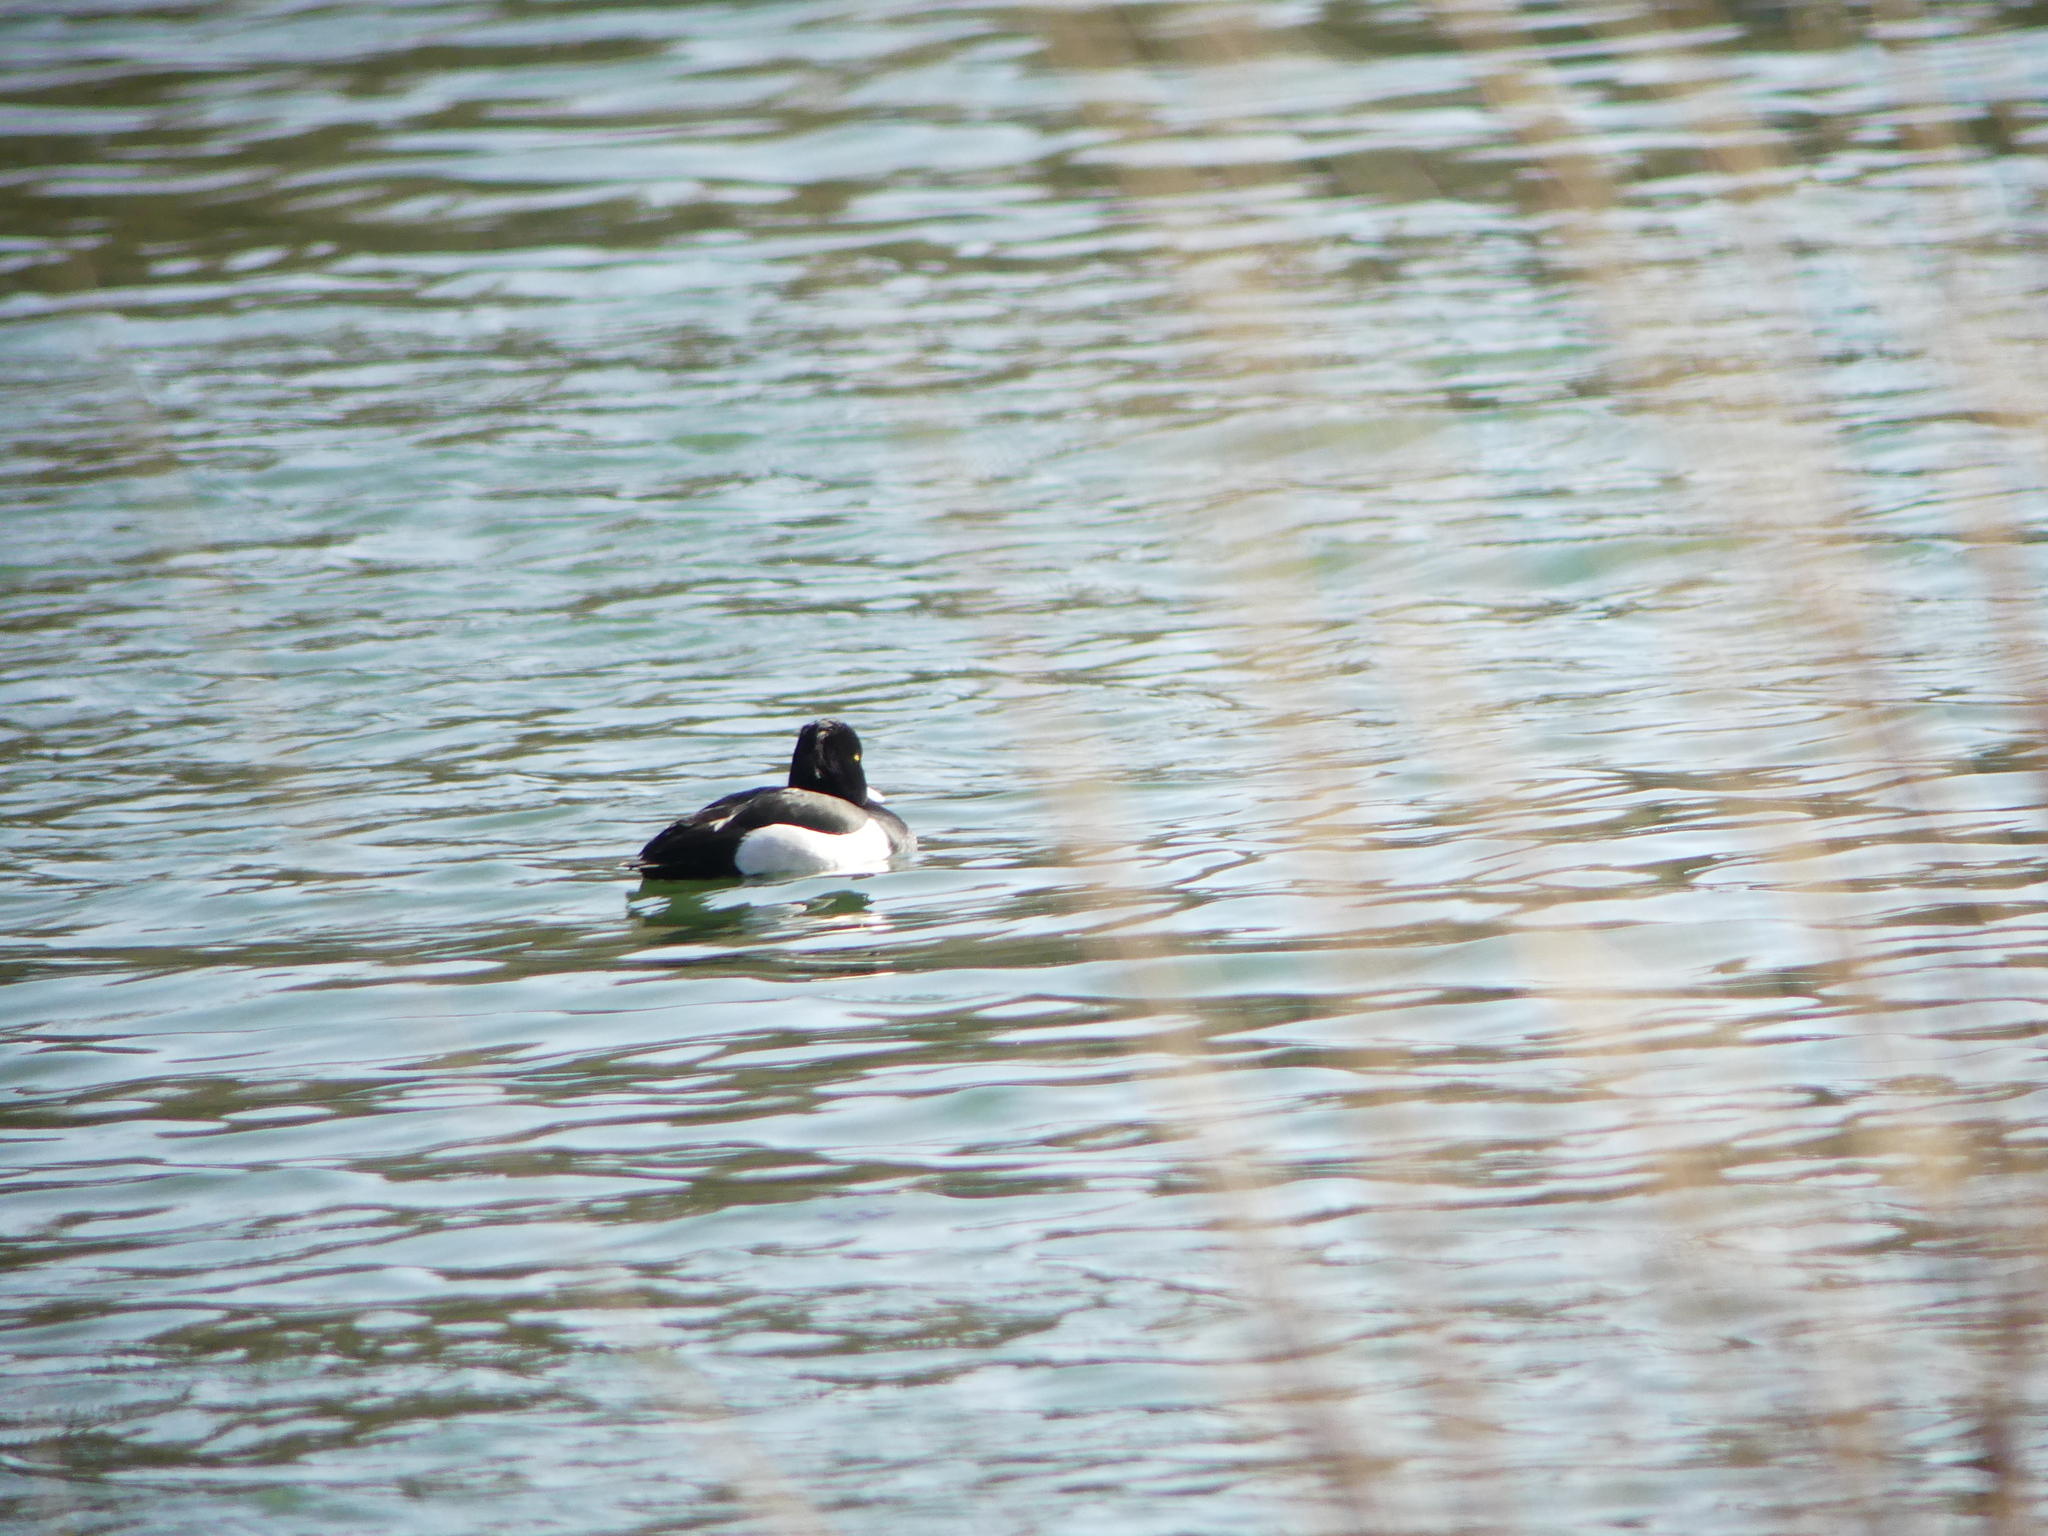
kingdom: Animalia
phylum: Chordata
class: Aves
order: Anseriformes
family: Anatidae
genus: Aythya
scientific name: Aythya fuligula
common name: Tufted duck
